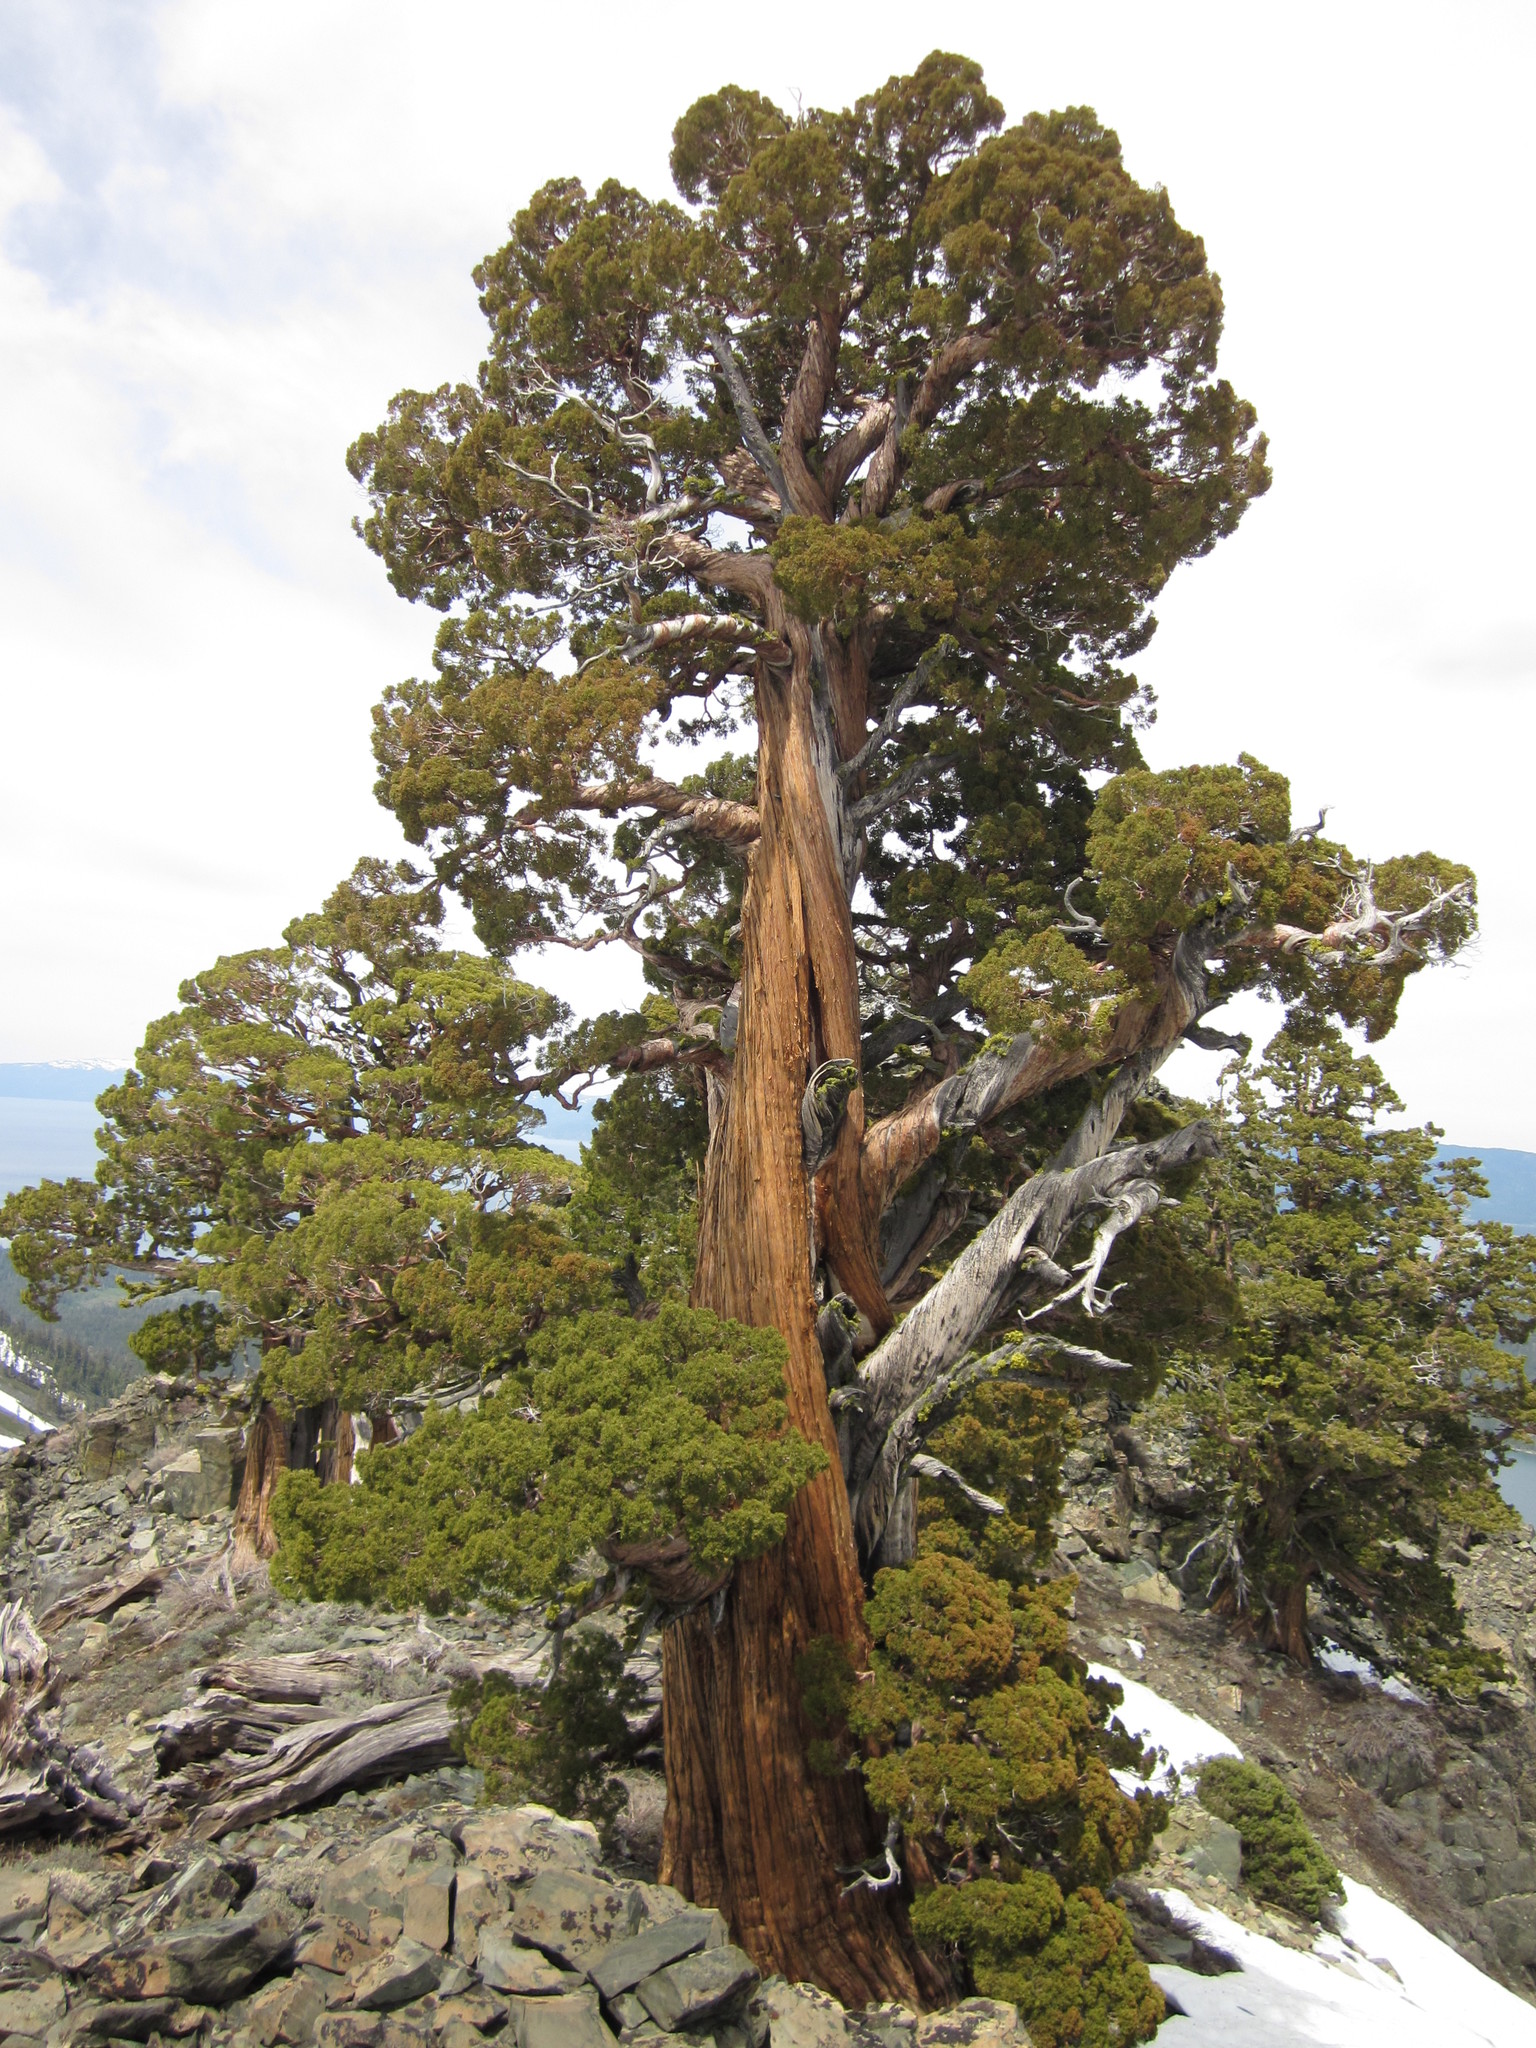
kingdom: Plantae
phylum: Tracheophyta
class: Pinopsida
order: Pinales
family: Cupressaceae
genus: Juniperus
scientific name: Juniperus occidentalis
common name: Western juniper
